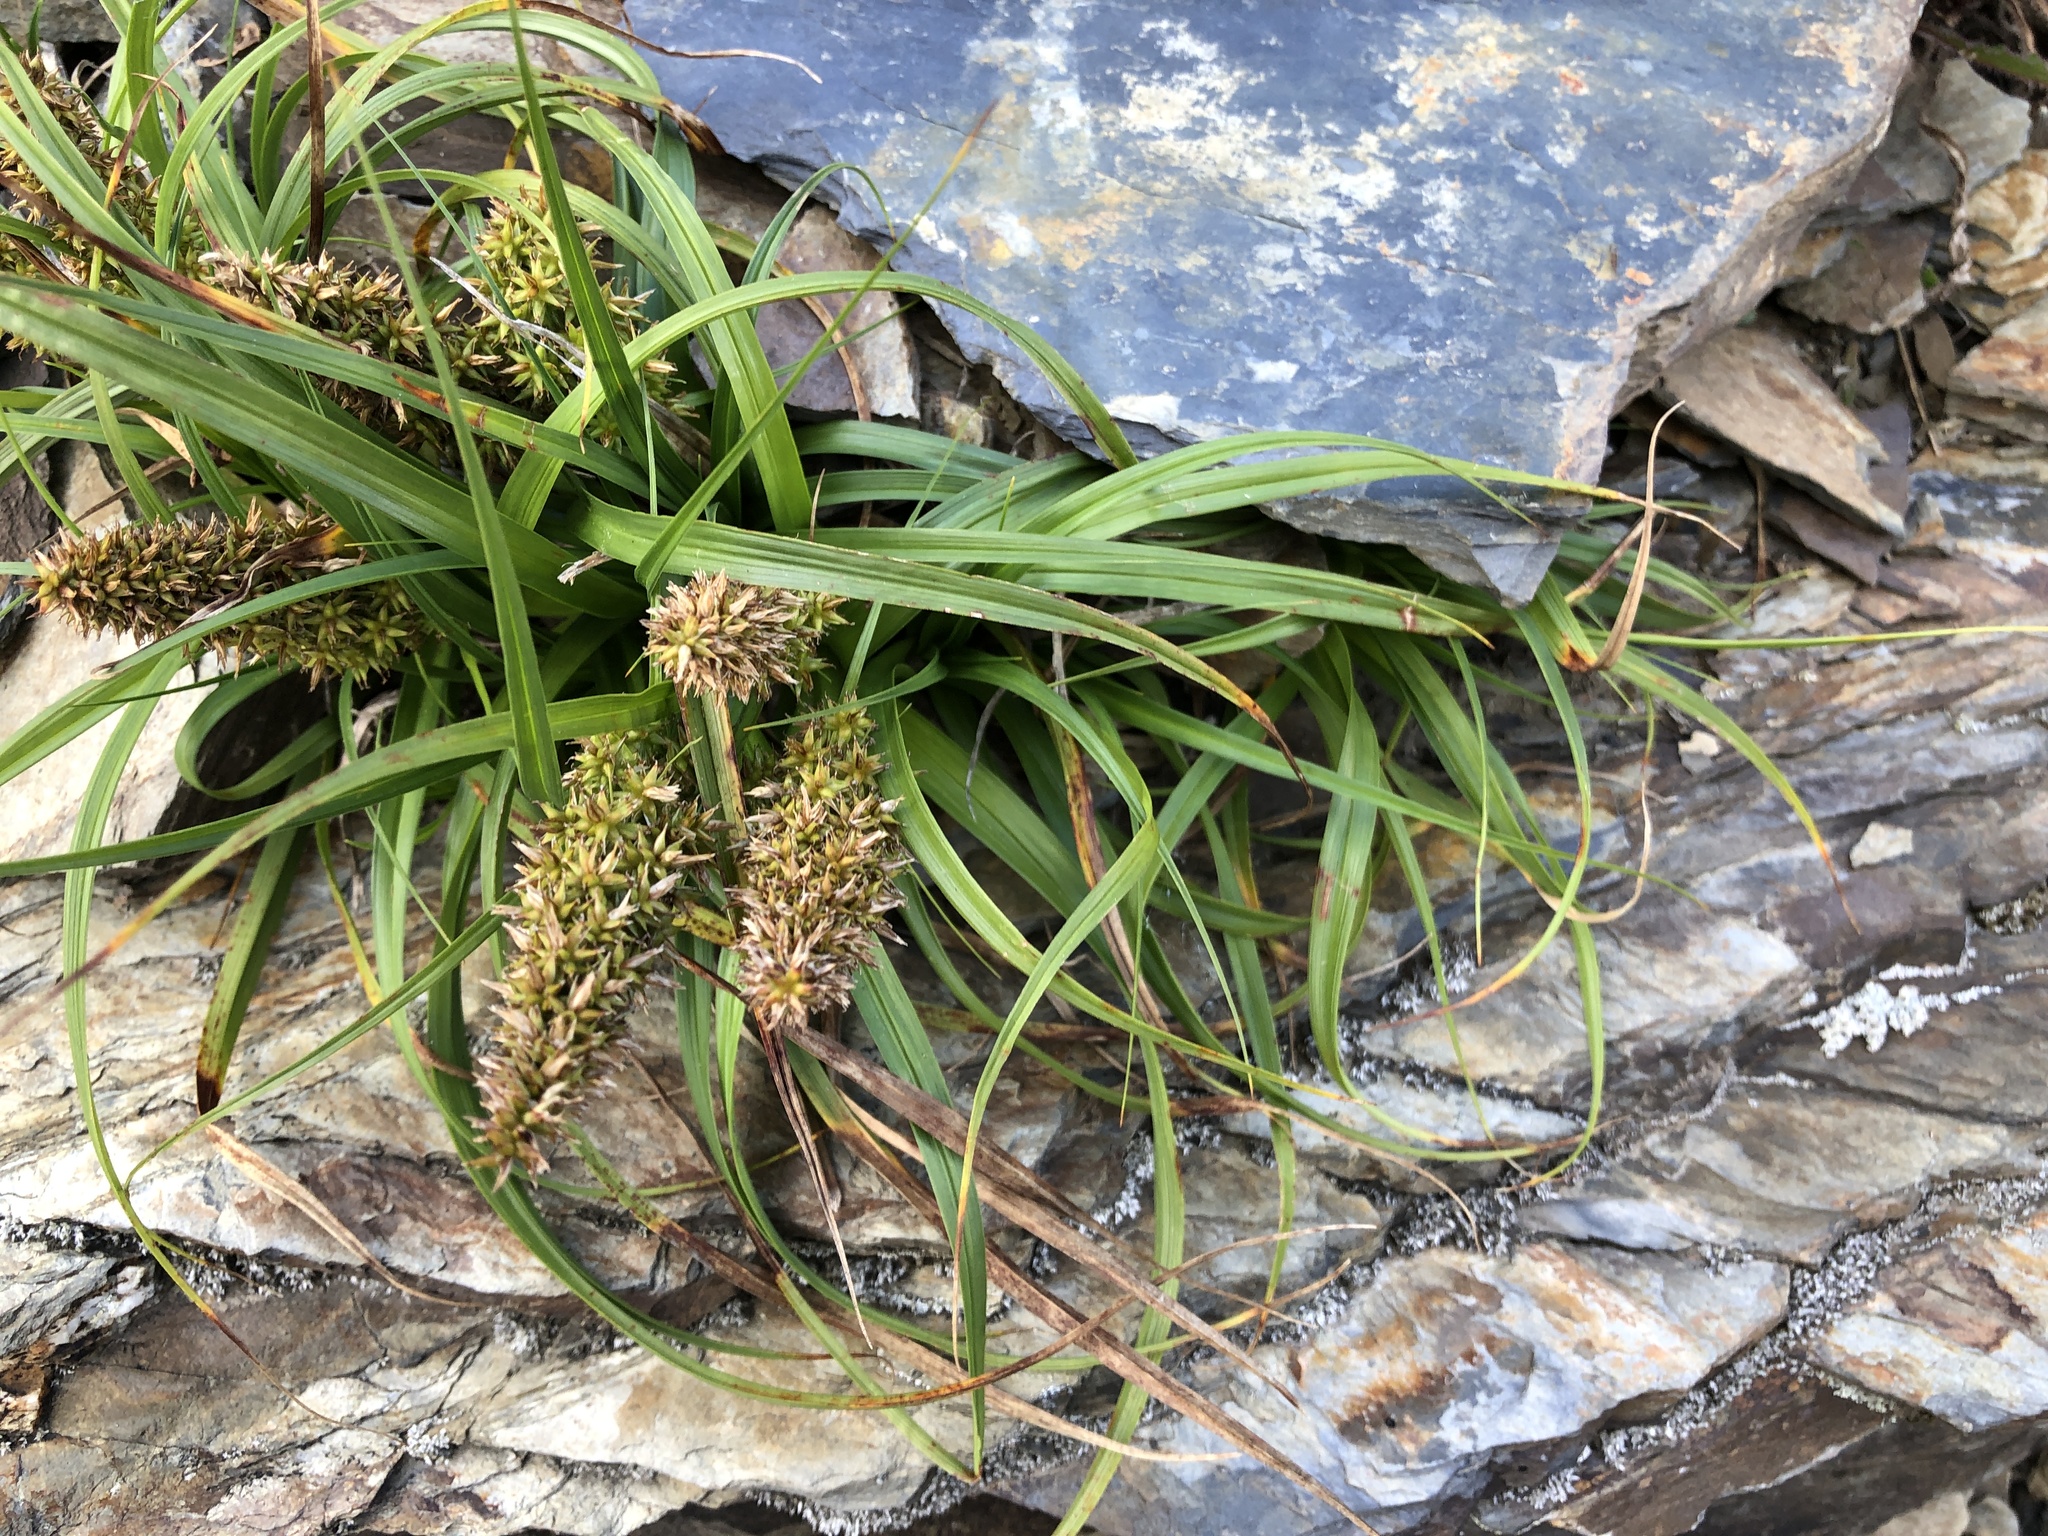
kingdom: Plantae
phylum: Tracheophyta
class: Liliopsida
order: Poales
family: Cyperaceae
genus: Carex
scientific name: Carex satsumensis
